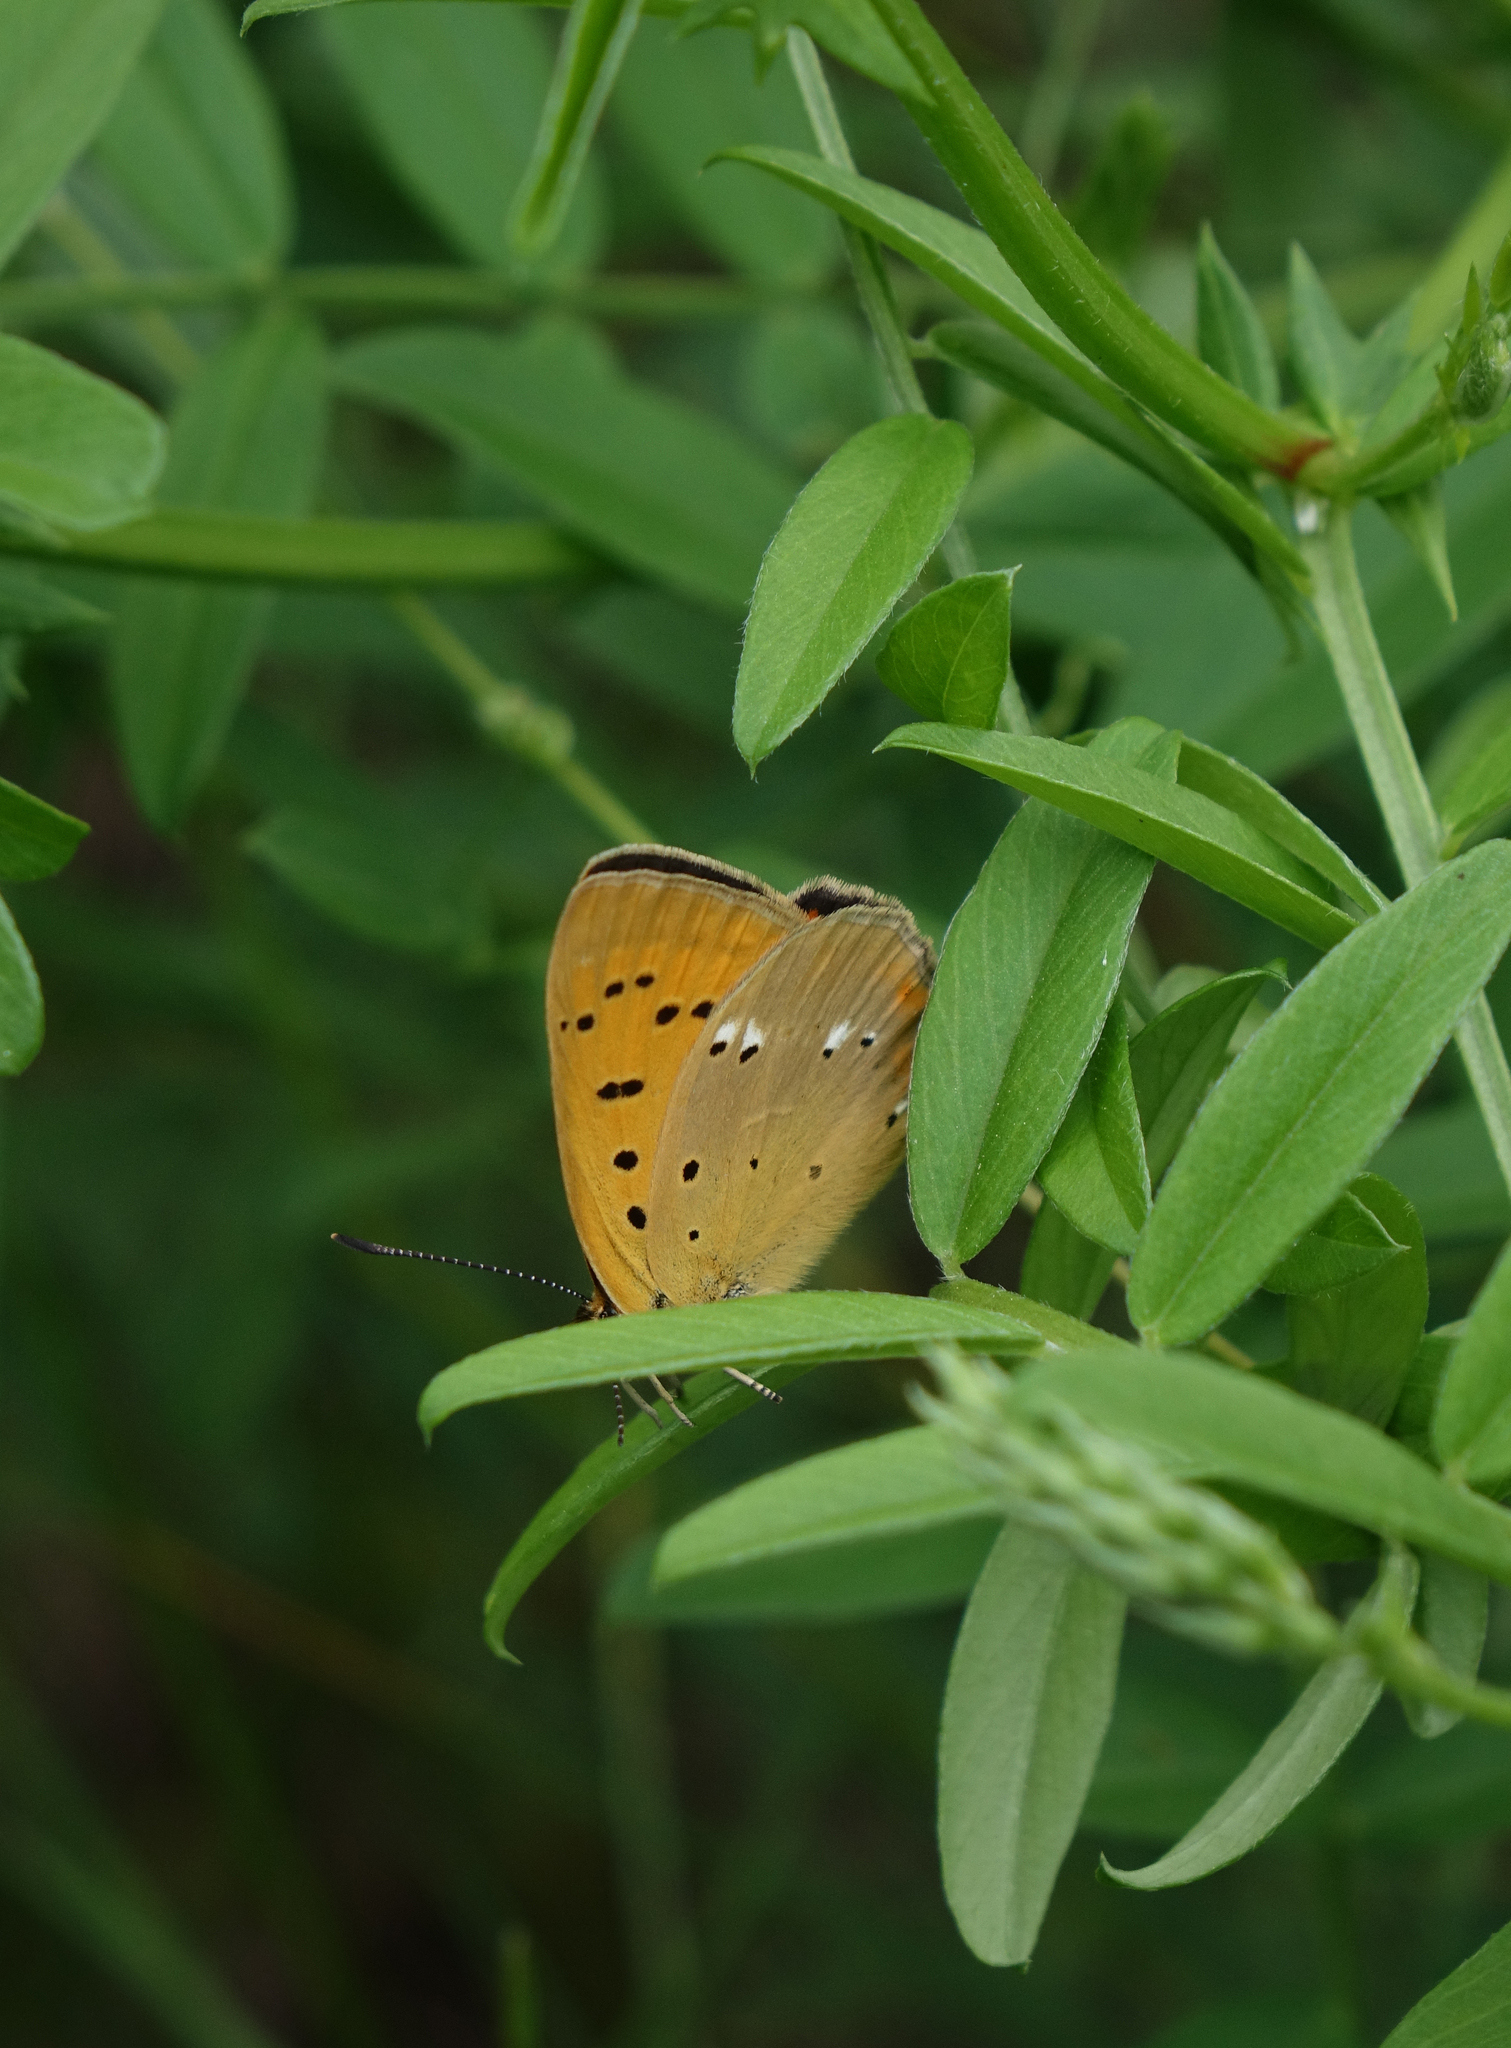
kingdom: Animalia
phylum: Arthropoda
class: Insecta
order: Lepidoptera
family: Lycaenidae
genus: Lycaena
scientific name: Lycaena virgaureae
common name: Scarce copper
